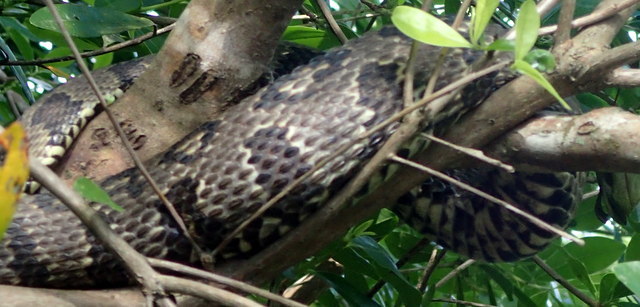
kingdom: Animalia
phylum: Chordata
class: Squamata
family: Colubridae
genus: Nerodia
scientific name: Nerodia taxispilota
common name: Brown water snake
